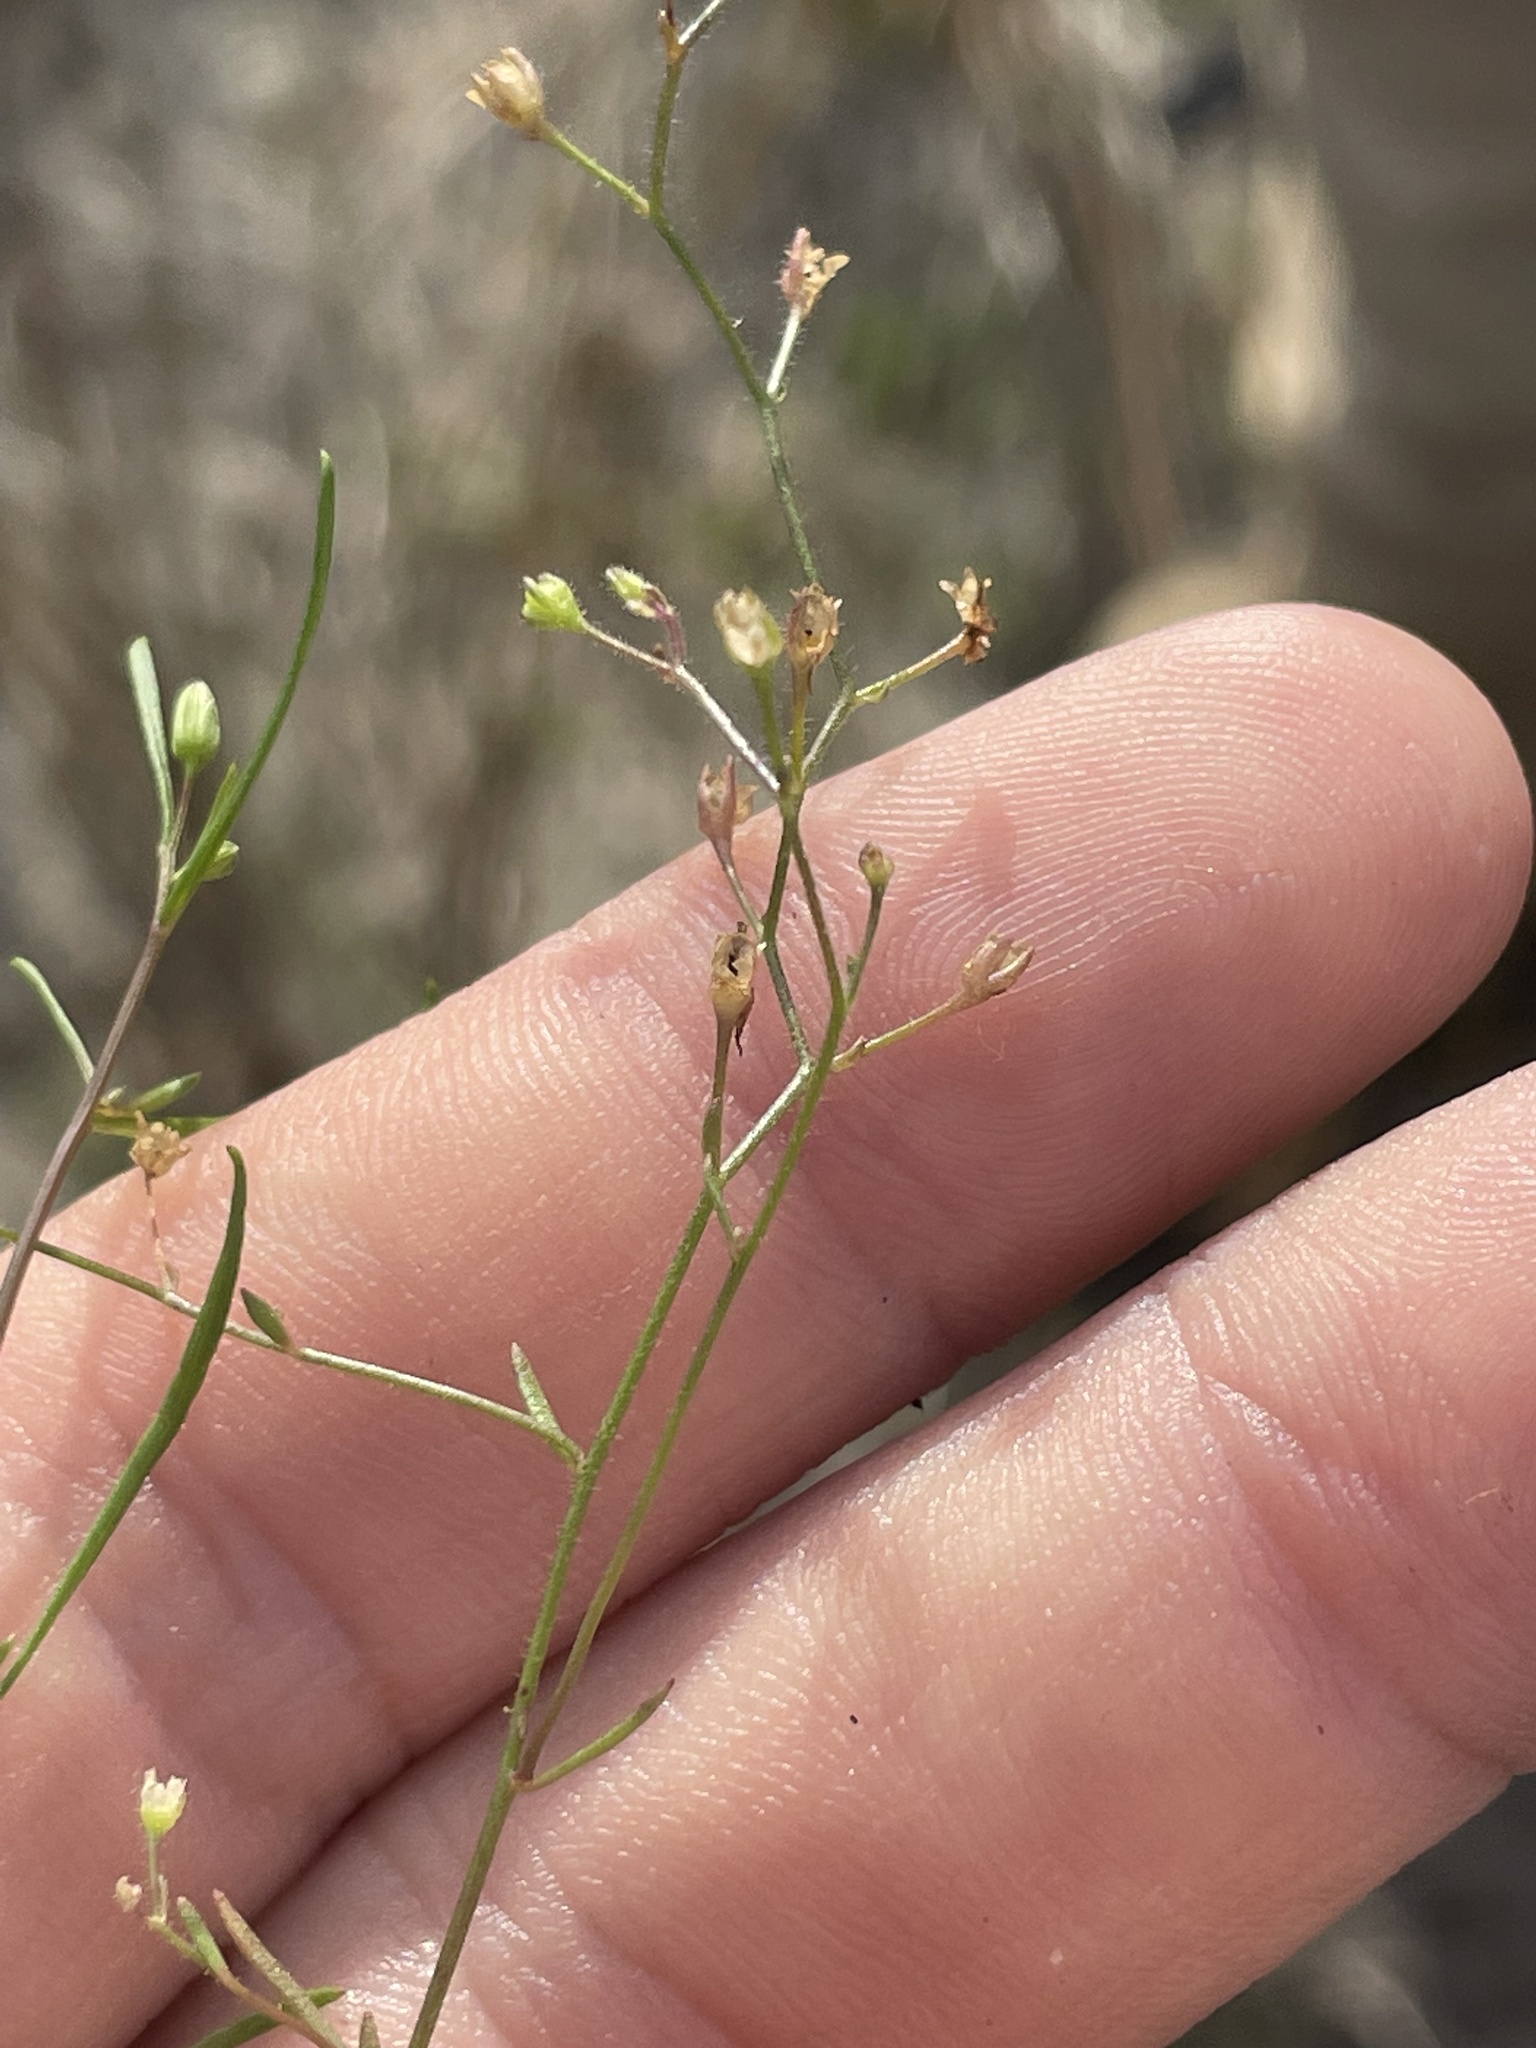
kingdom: Plantae
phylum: Tracheophyta
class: Magnoliopsida
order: Lamiales
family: Plantaginaceae
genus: Nuttallanthus
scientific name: Nuttallanthus floridanus
